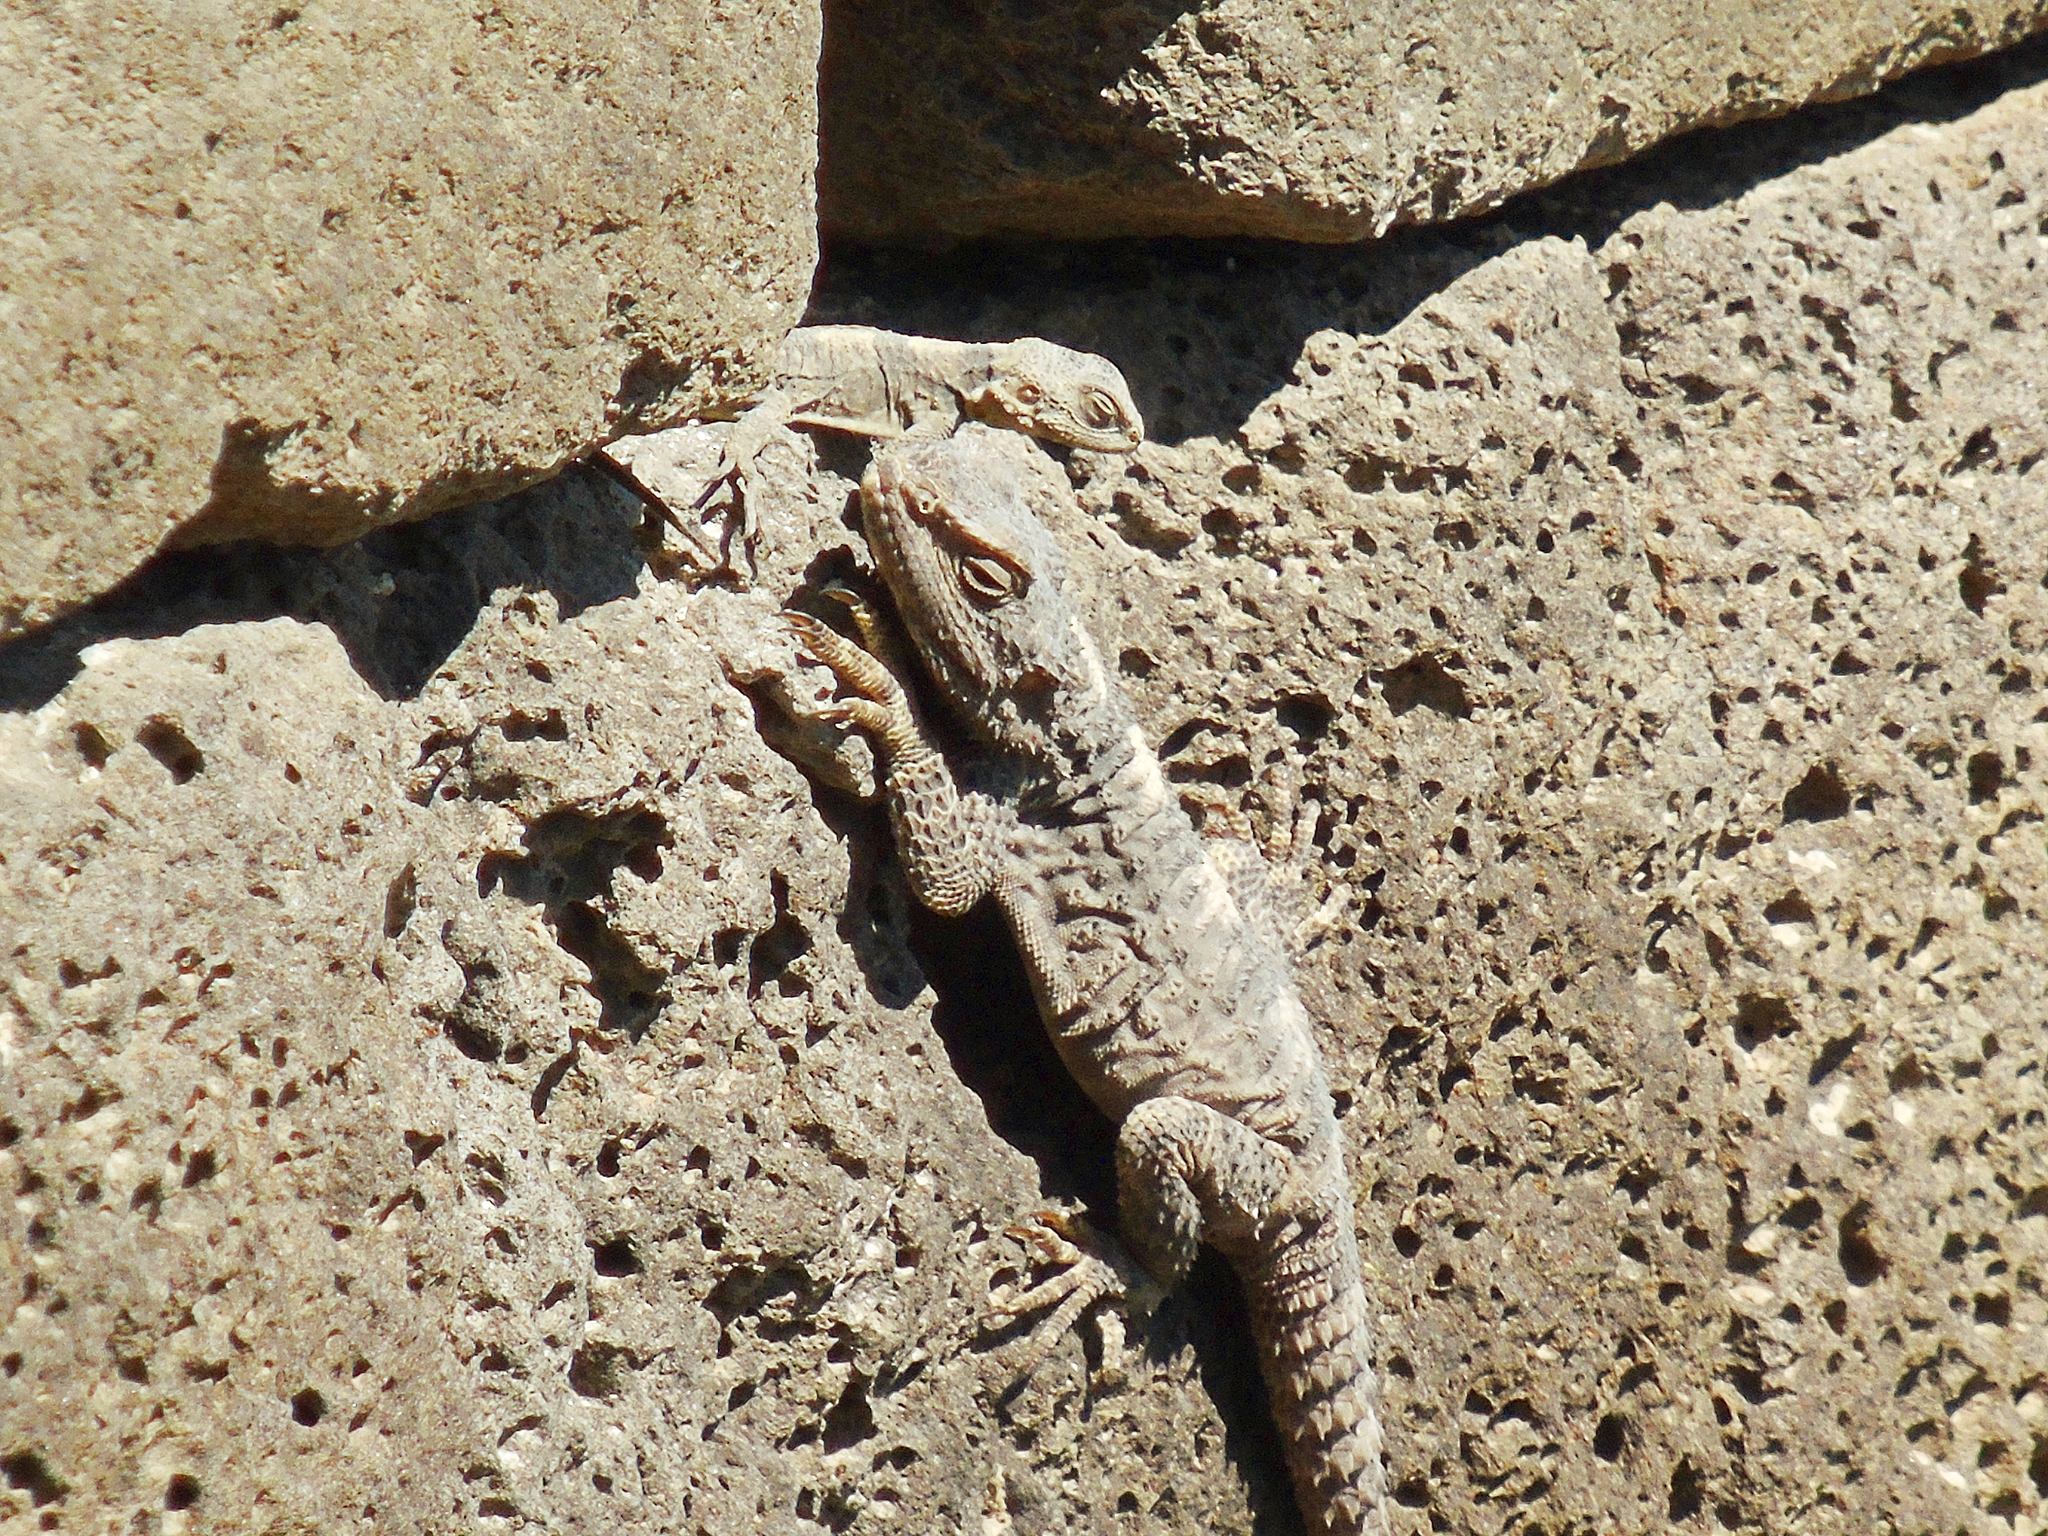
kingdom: Animalia
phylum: Chordata
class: Squamata
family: Agamidae
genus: Stellagama
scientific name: Stellagama stellio
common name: Starred agama
